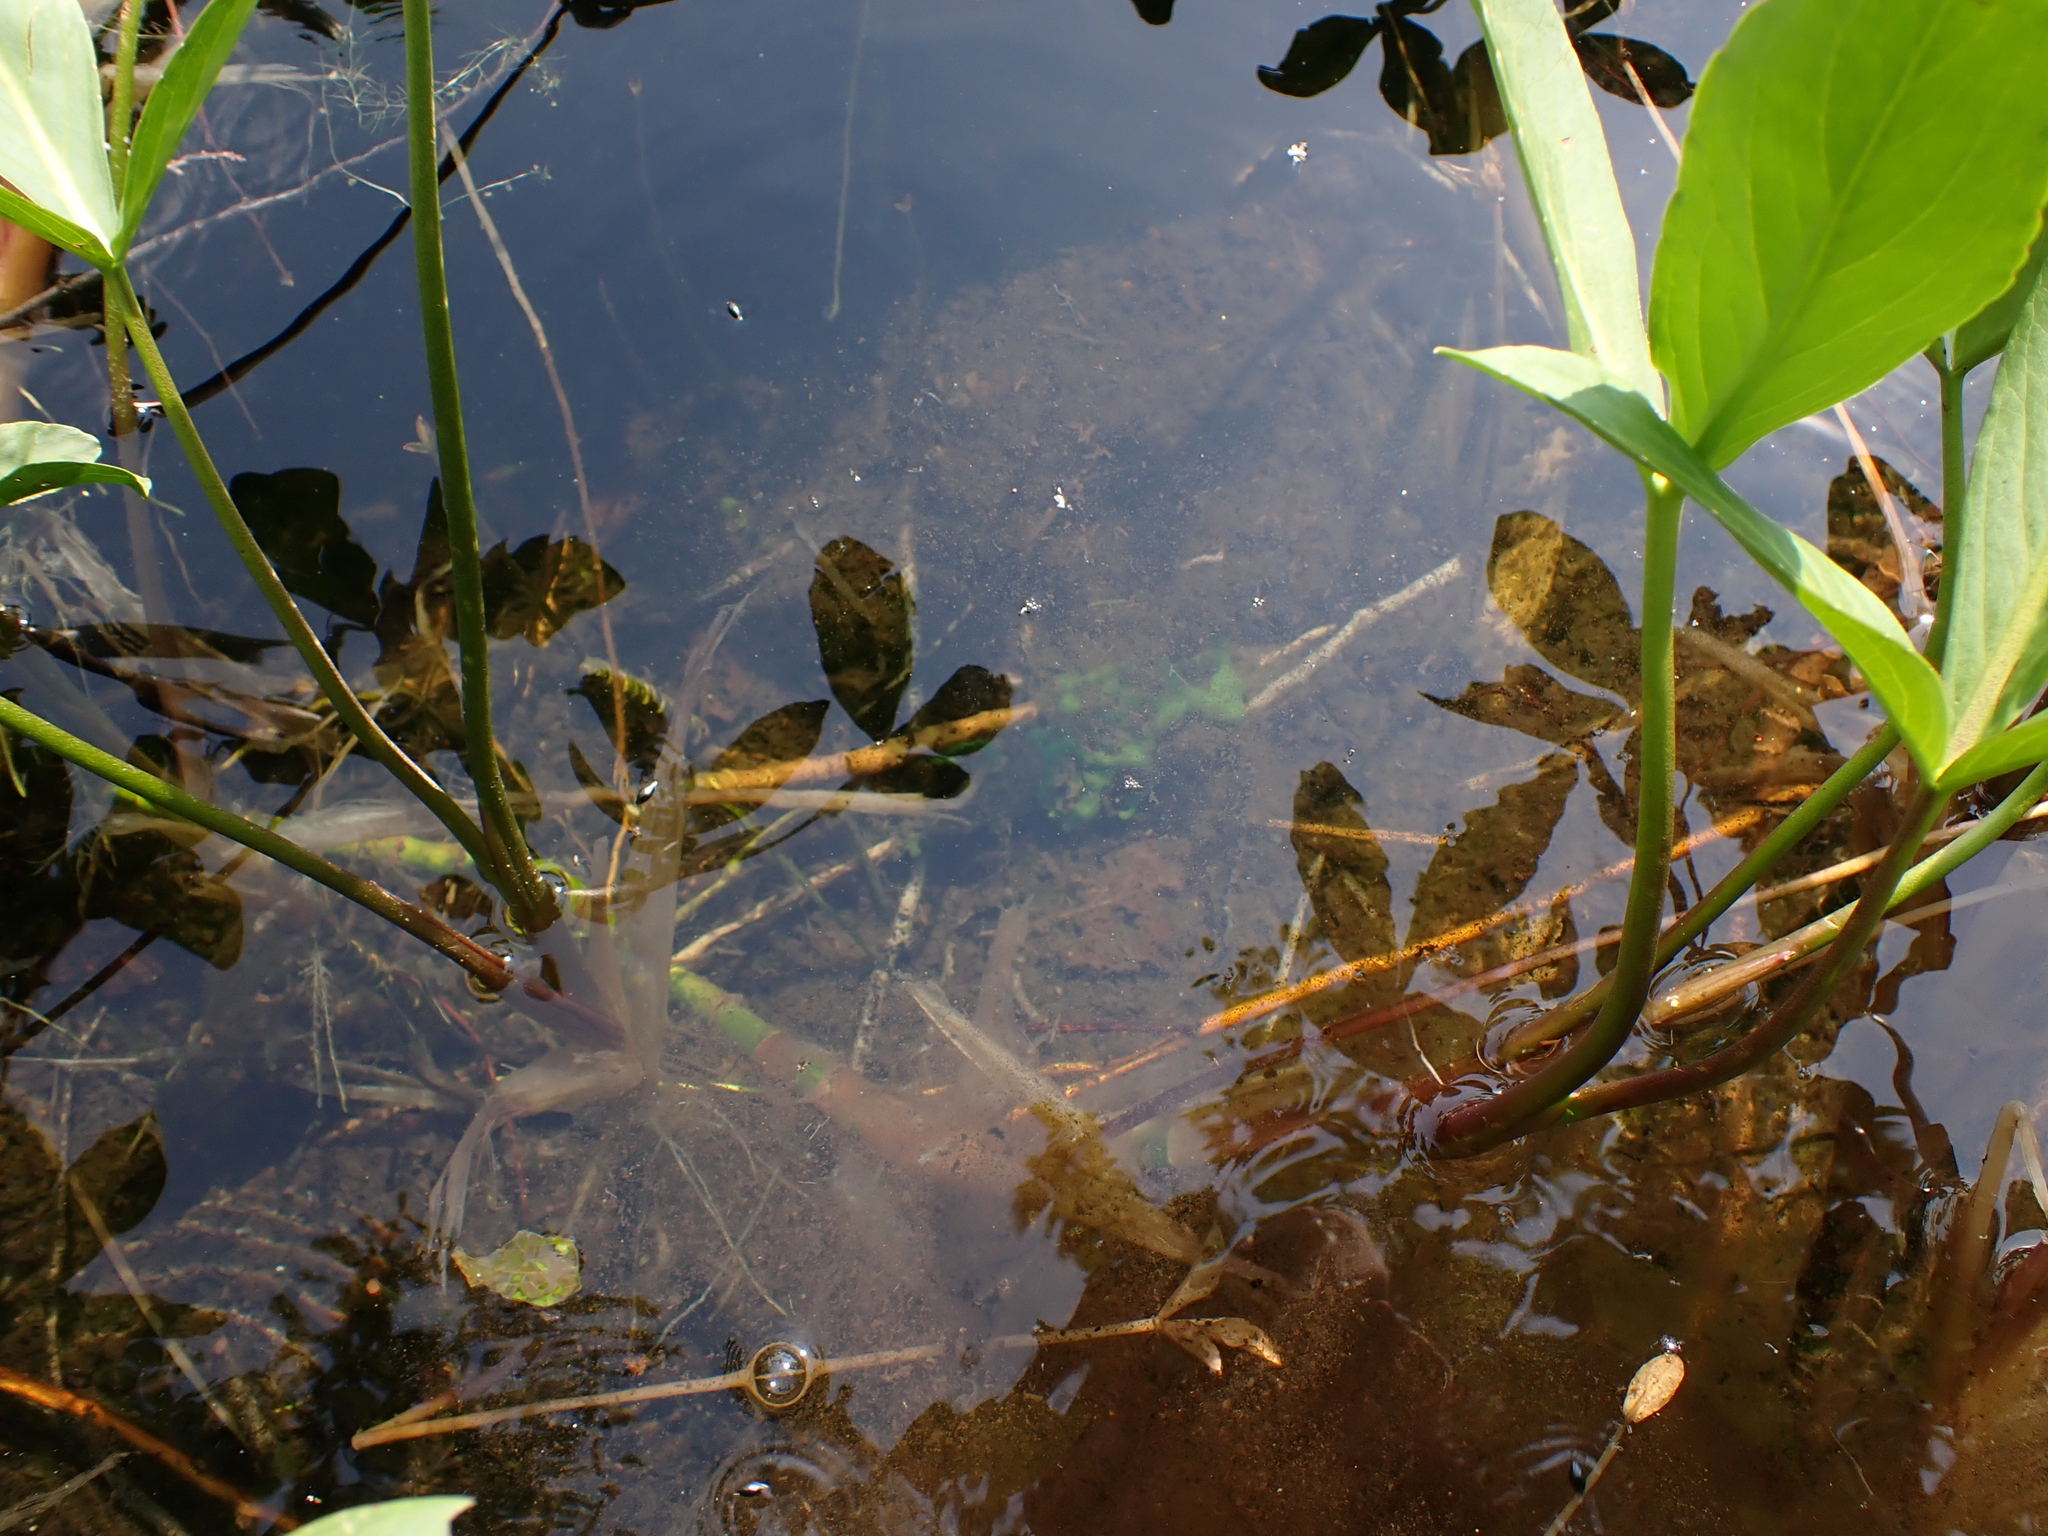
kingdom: Plantae
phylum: Tracheophyta
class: Magnoliopsida
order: Asterales
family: Menyanthaceae
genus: Menyanthes
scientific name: Menyanthes trifoliata
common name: Bogbean
